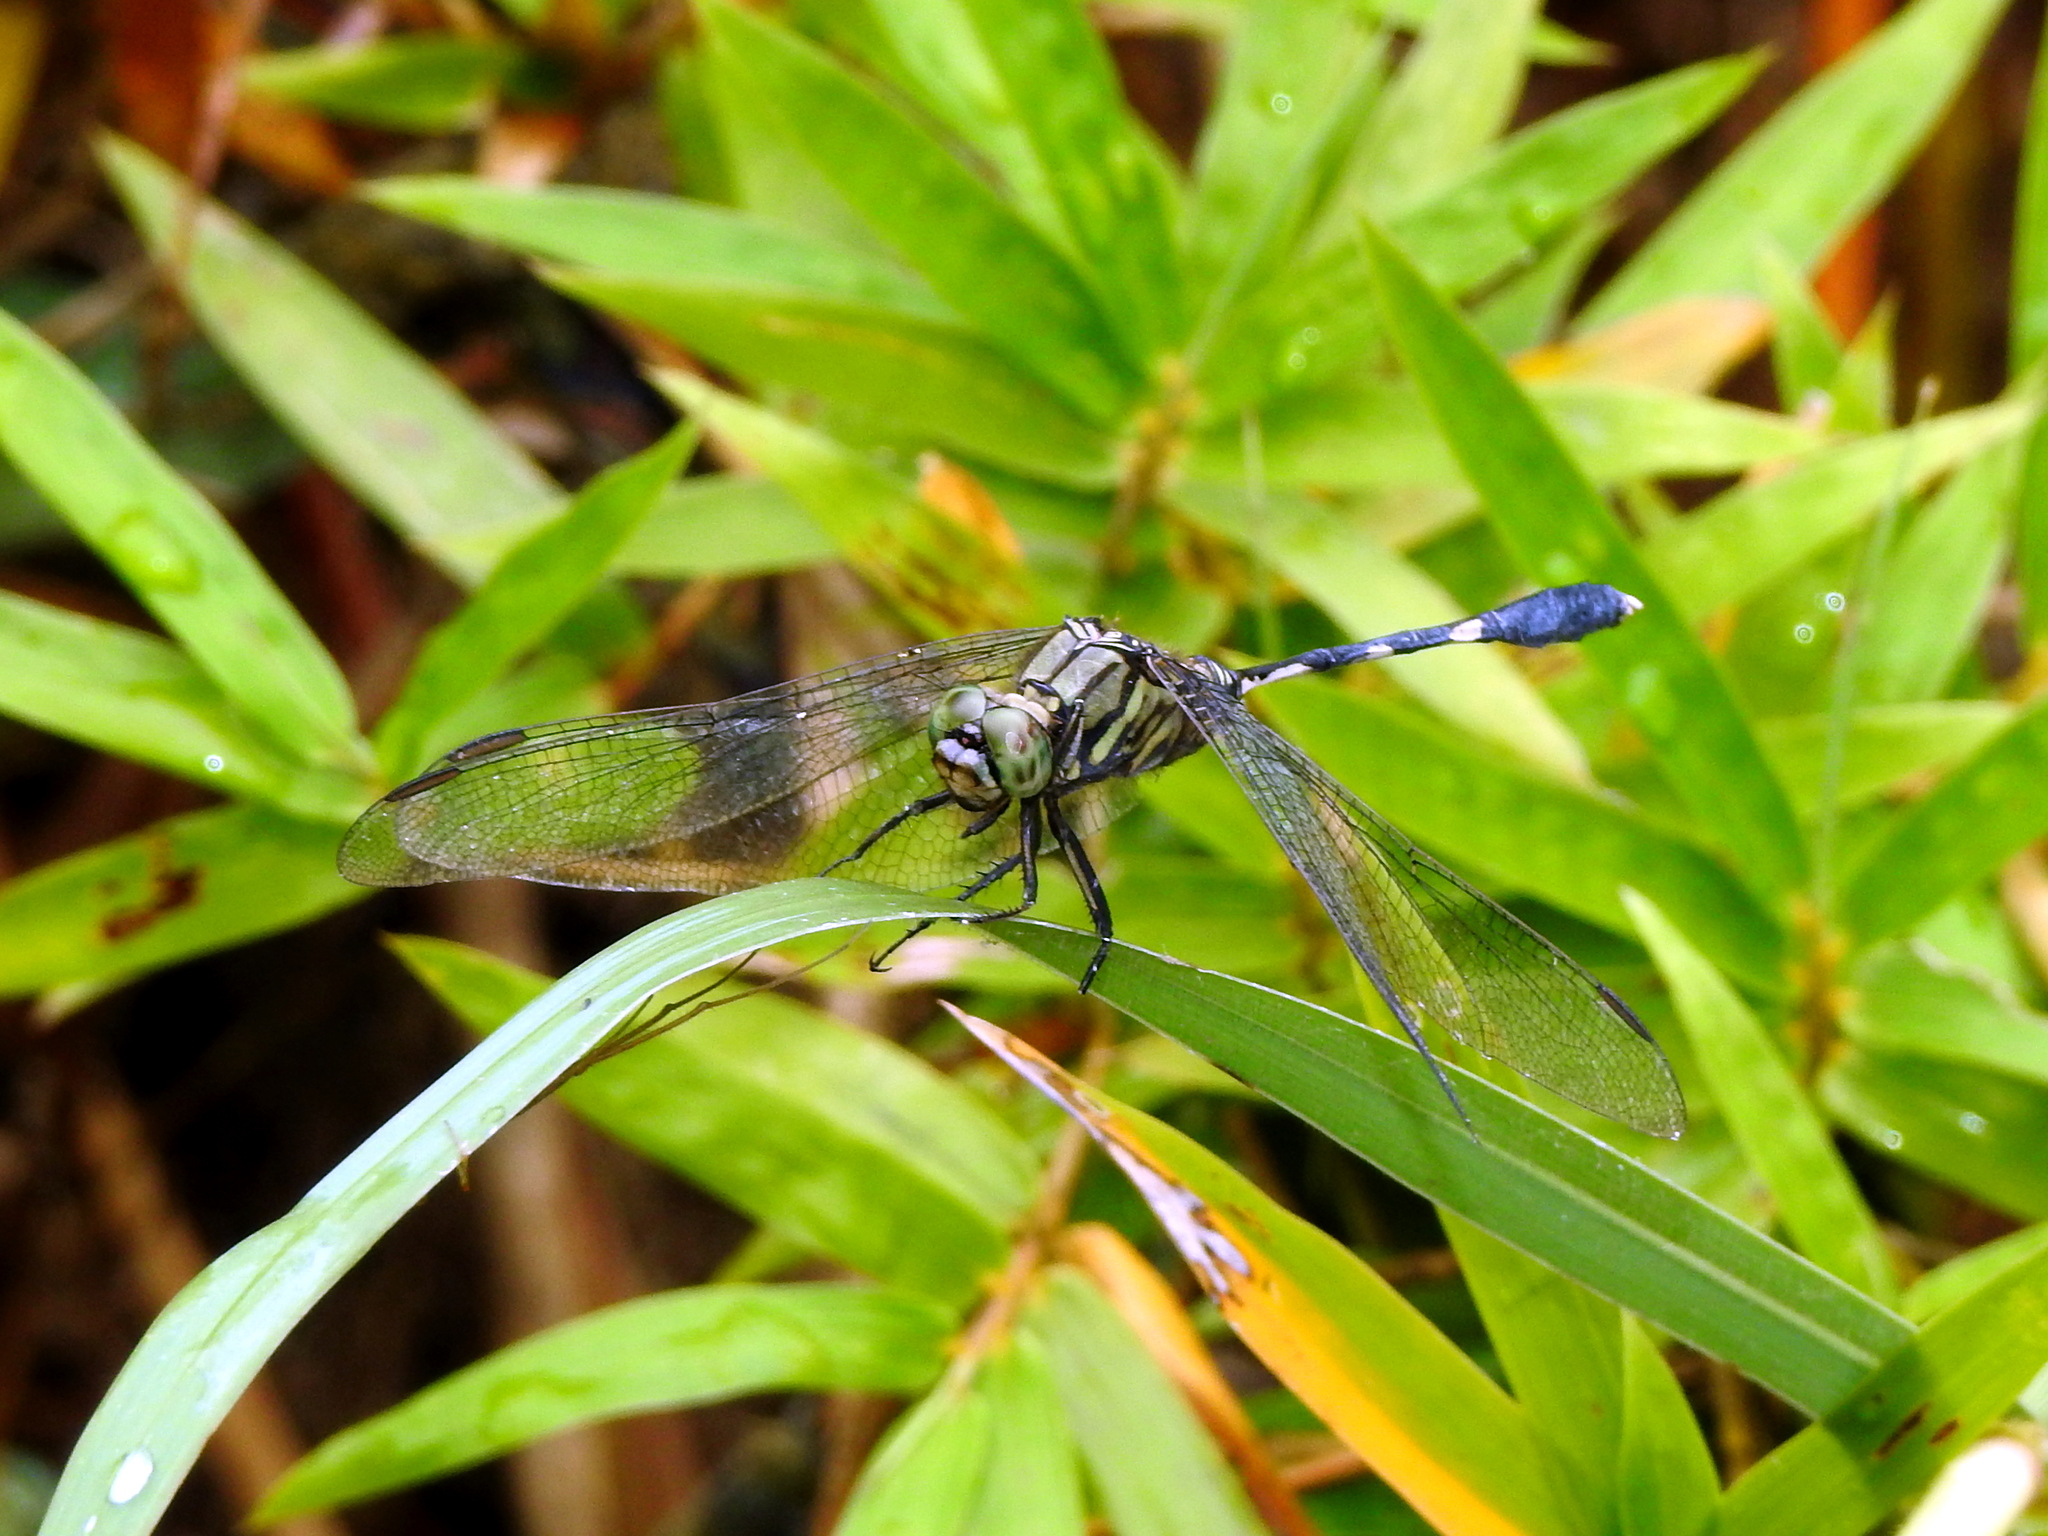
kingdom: Animalia
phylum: Arthropoda
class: Insecta
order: Odonata
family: Libellulidae
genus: Orthetrum
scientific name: Orthetrum sabina
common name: Slender skimmer
